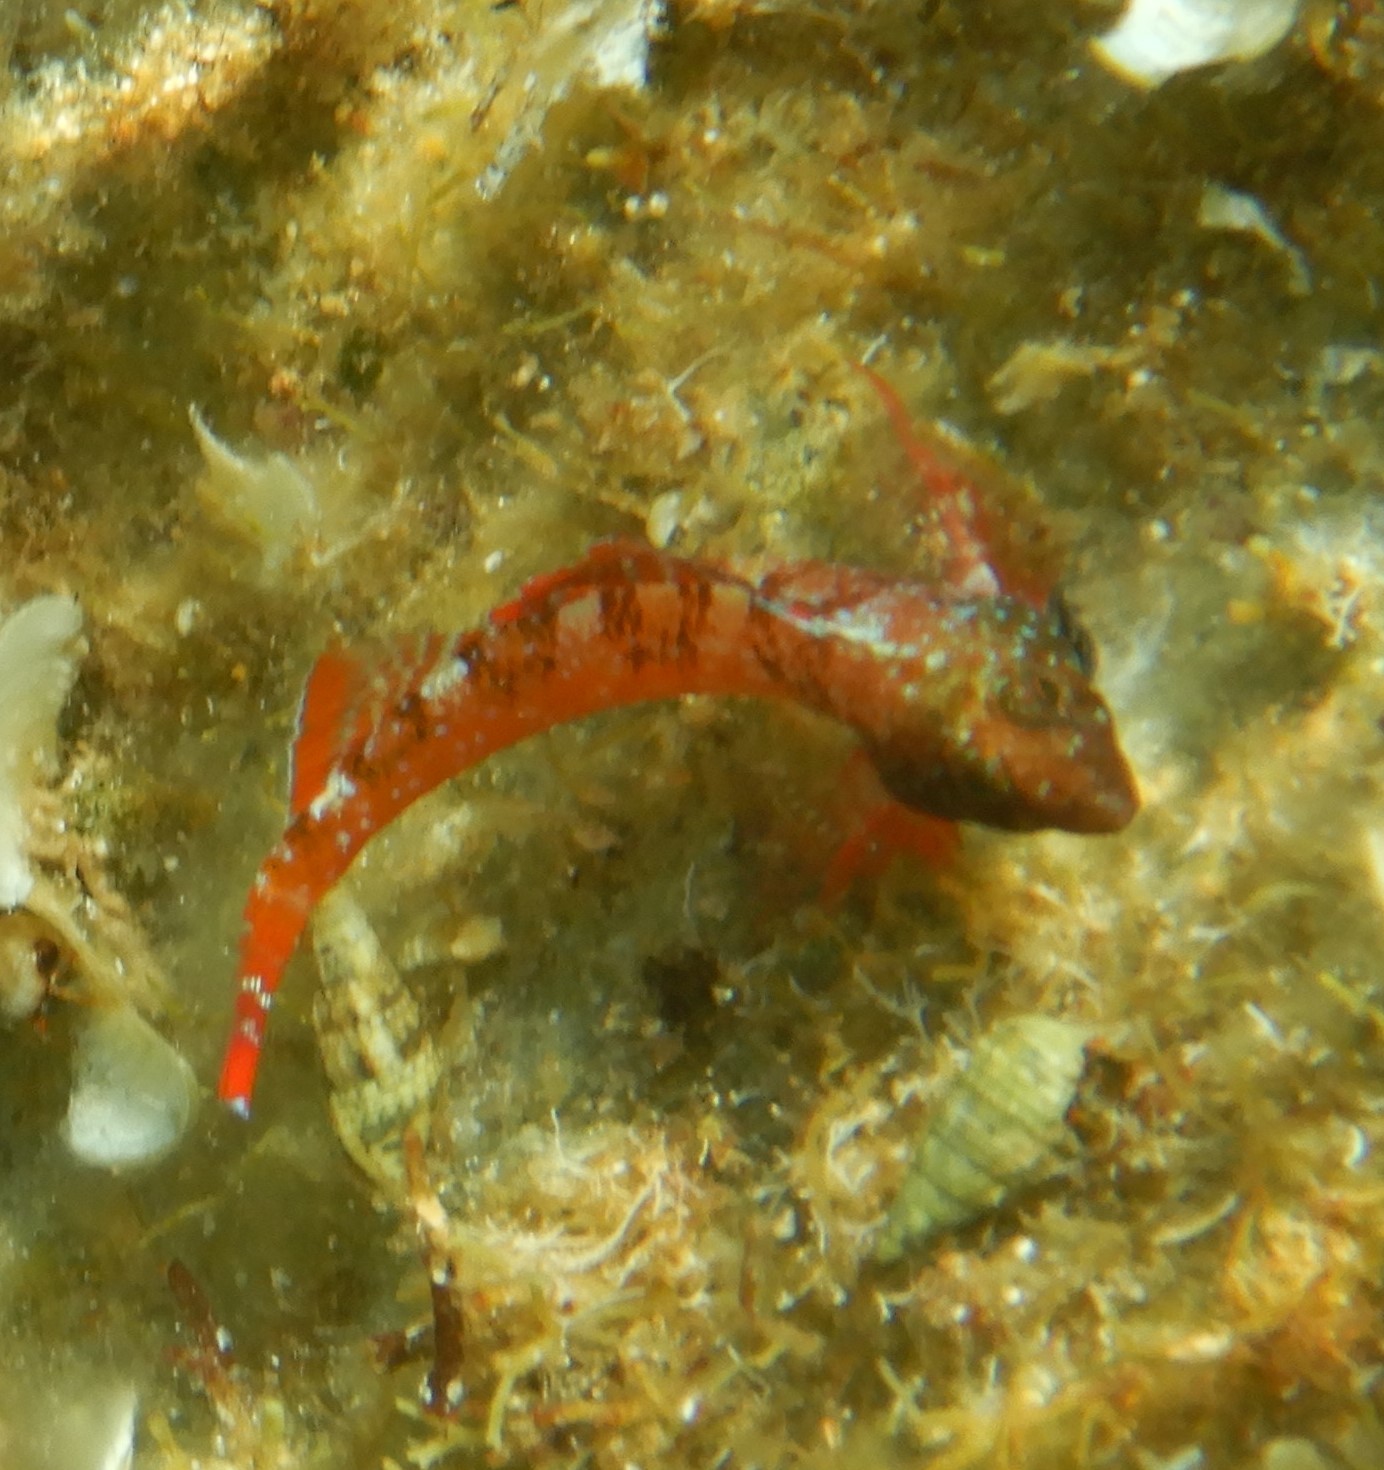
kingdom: Animalia
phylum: Chordata
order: Perciformes
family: Tripterygiidae
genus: Tripterygion
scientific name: Tripterygion tripteronotum
